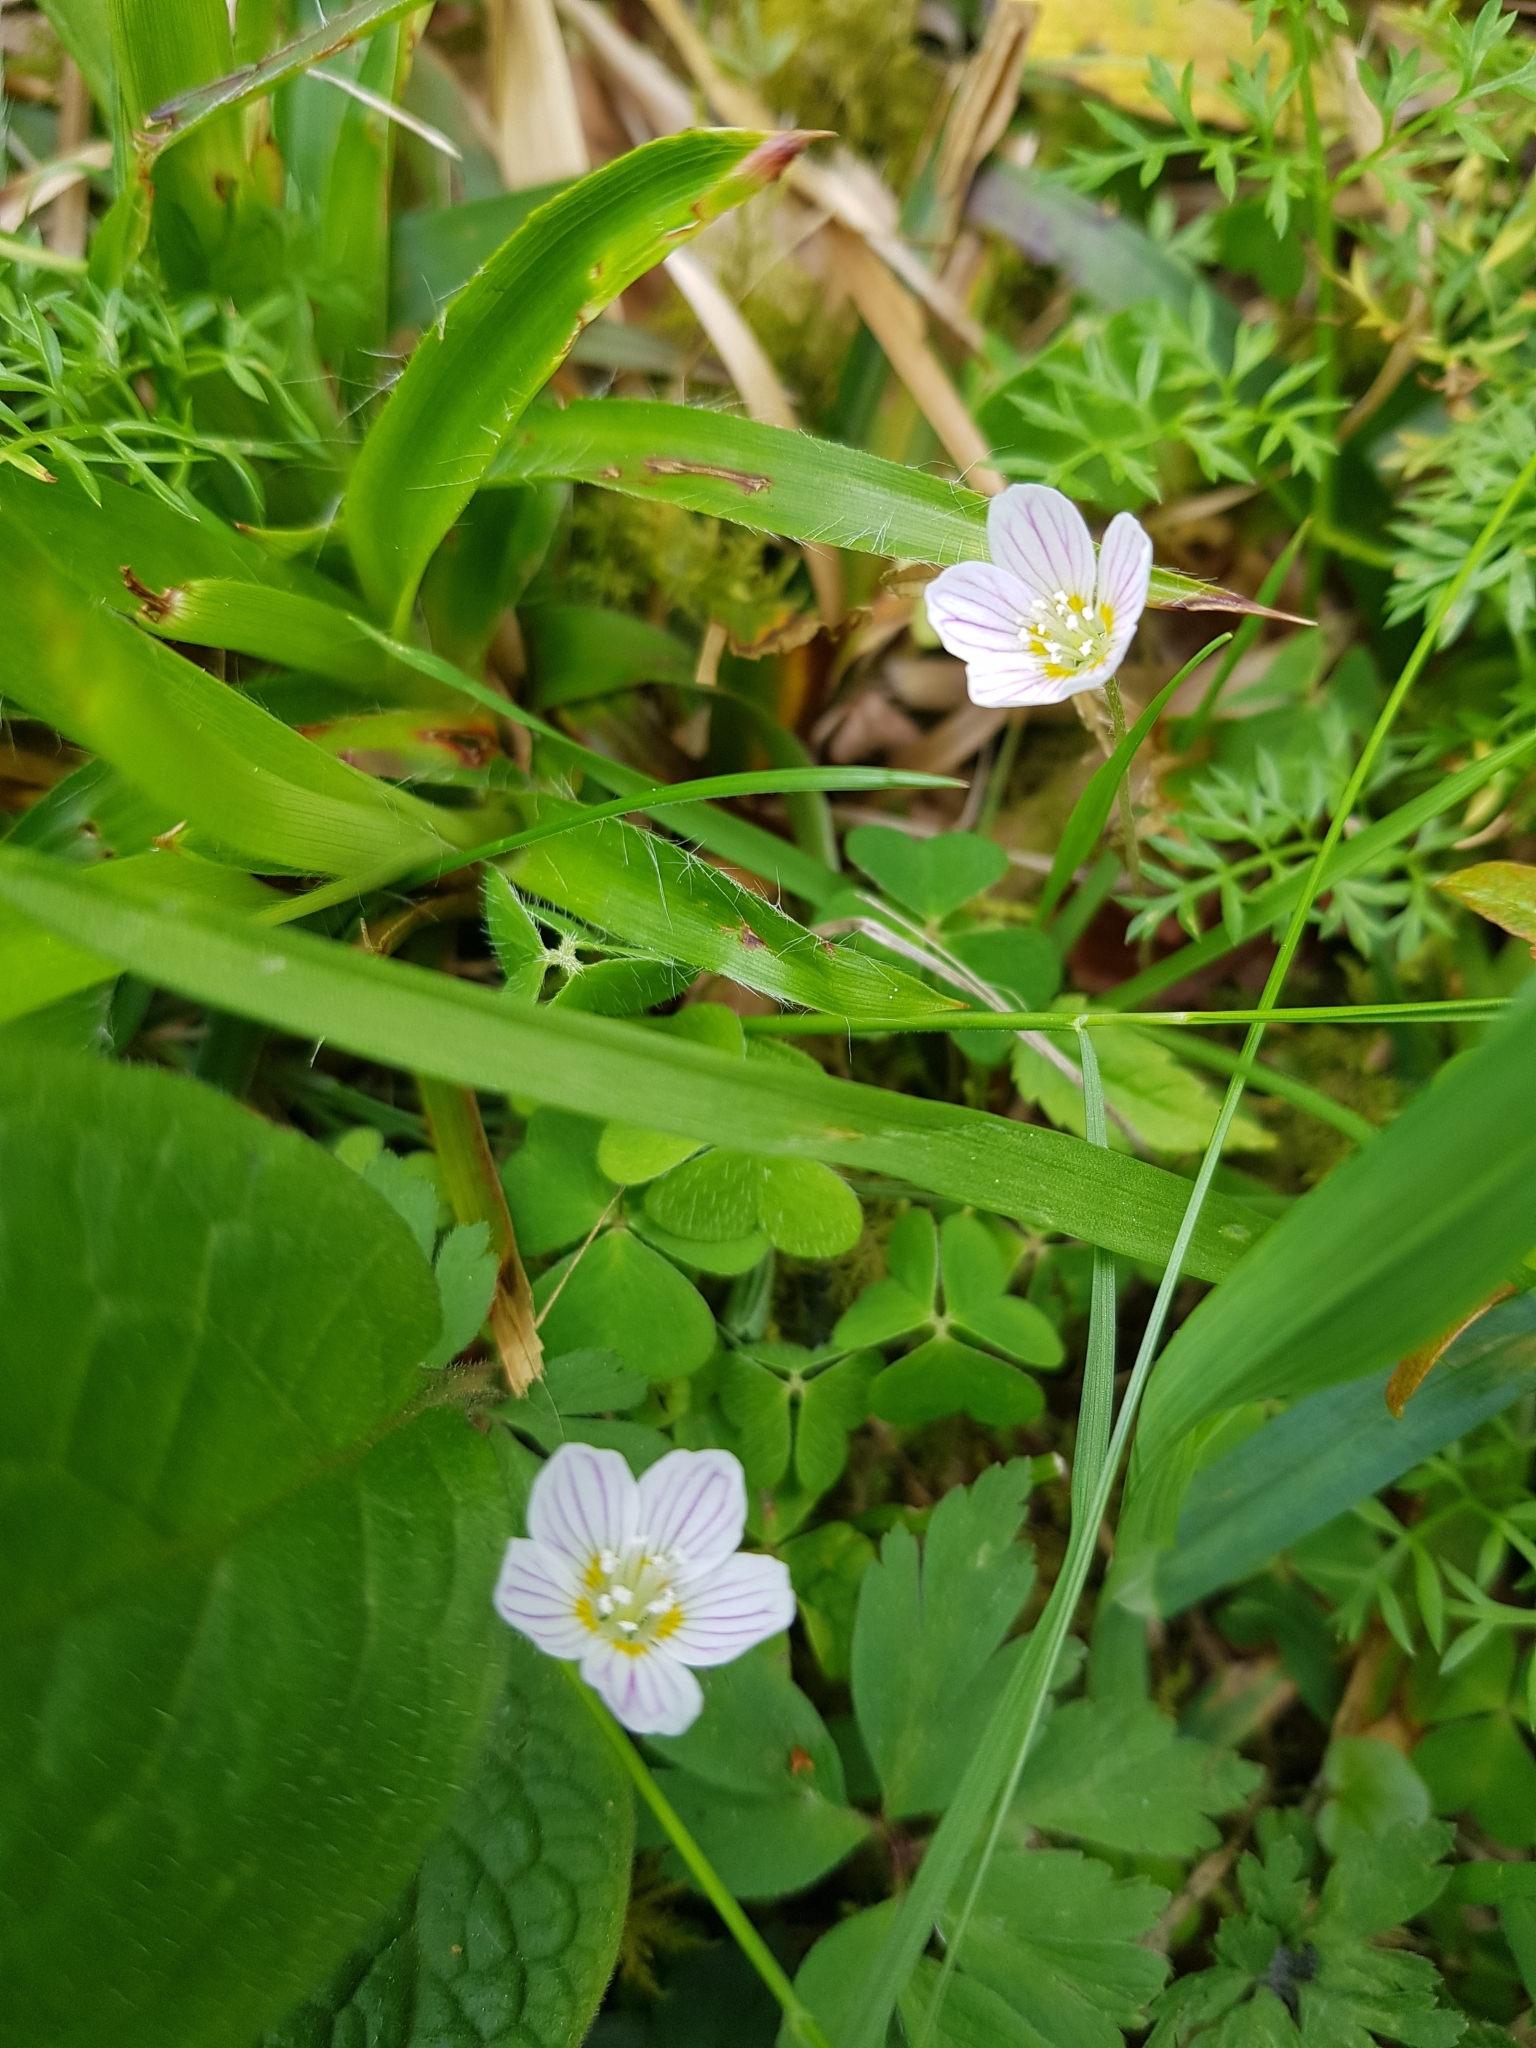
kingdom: Plantae
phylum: Tracheophyta
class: Magnoliopsida
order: Oxalidales
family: Oxalidaceae
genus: Oxalis
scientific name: Oxalis acetosella
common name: Wood-sorrel
